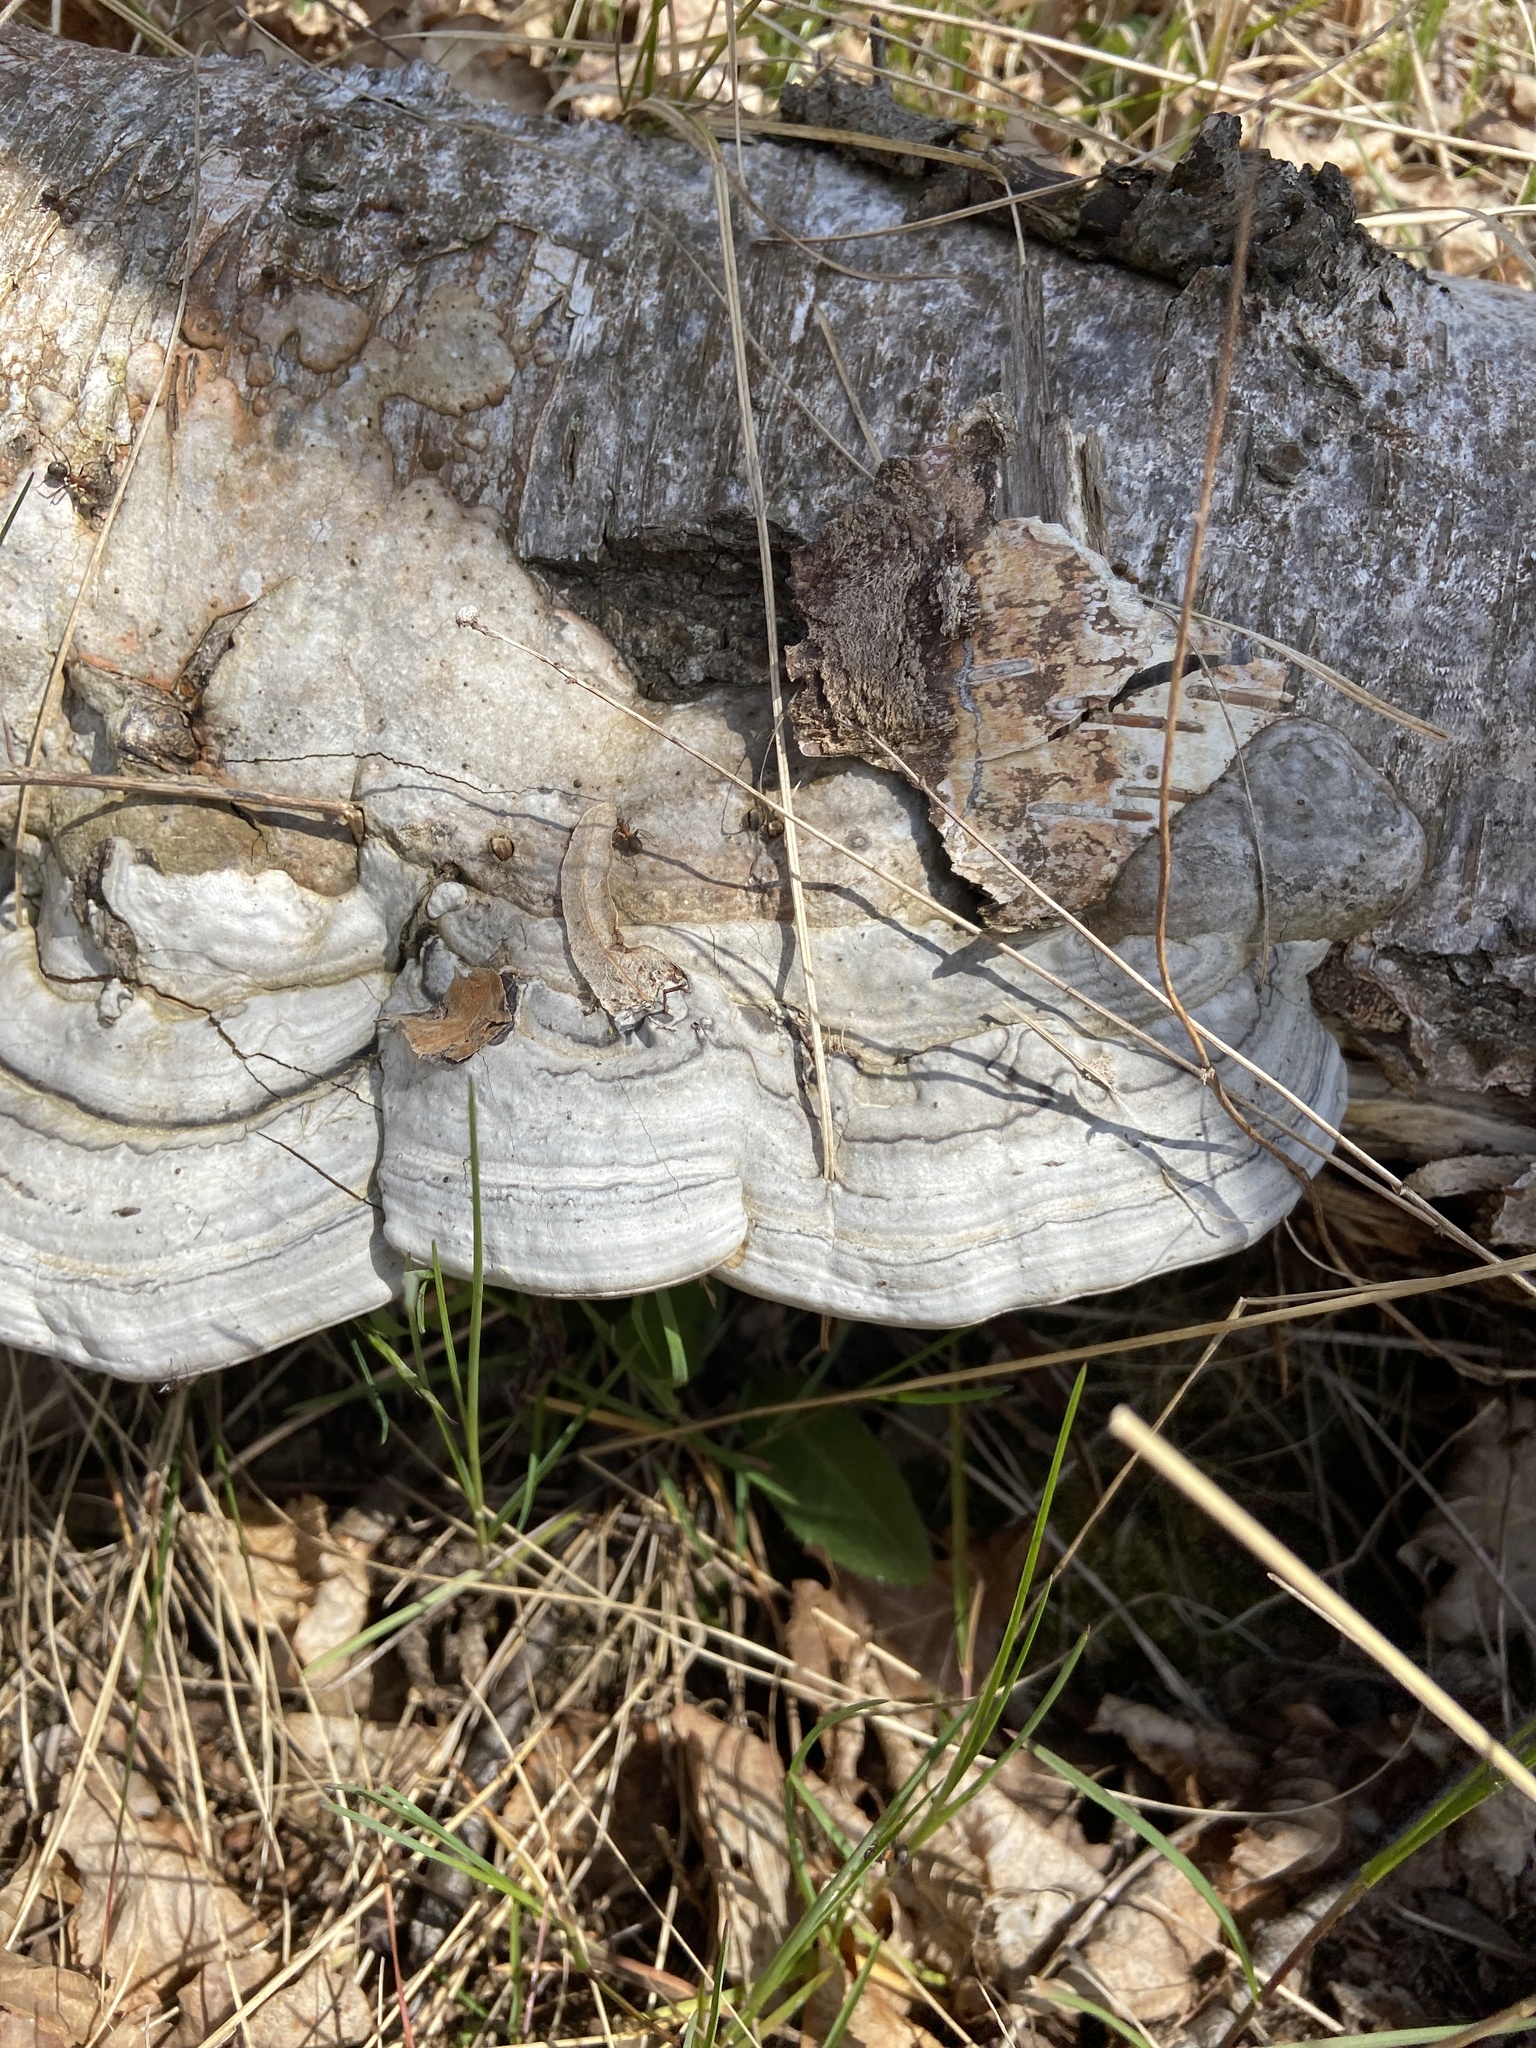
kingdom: Fungi
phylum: Basidiomycota
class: Agaricomycetes
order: Polyporales
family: Polyporaceae
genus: Fomes
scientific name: Fomes fomentarius
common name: Hoof fungus
